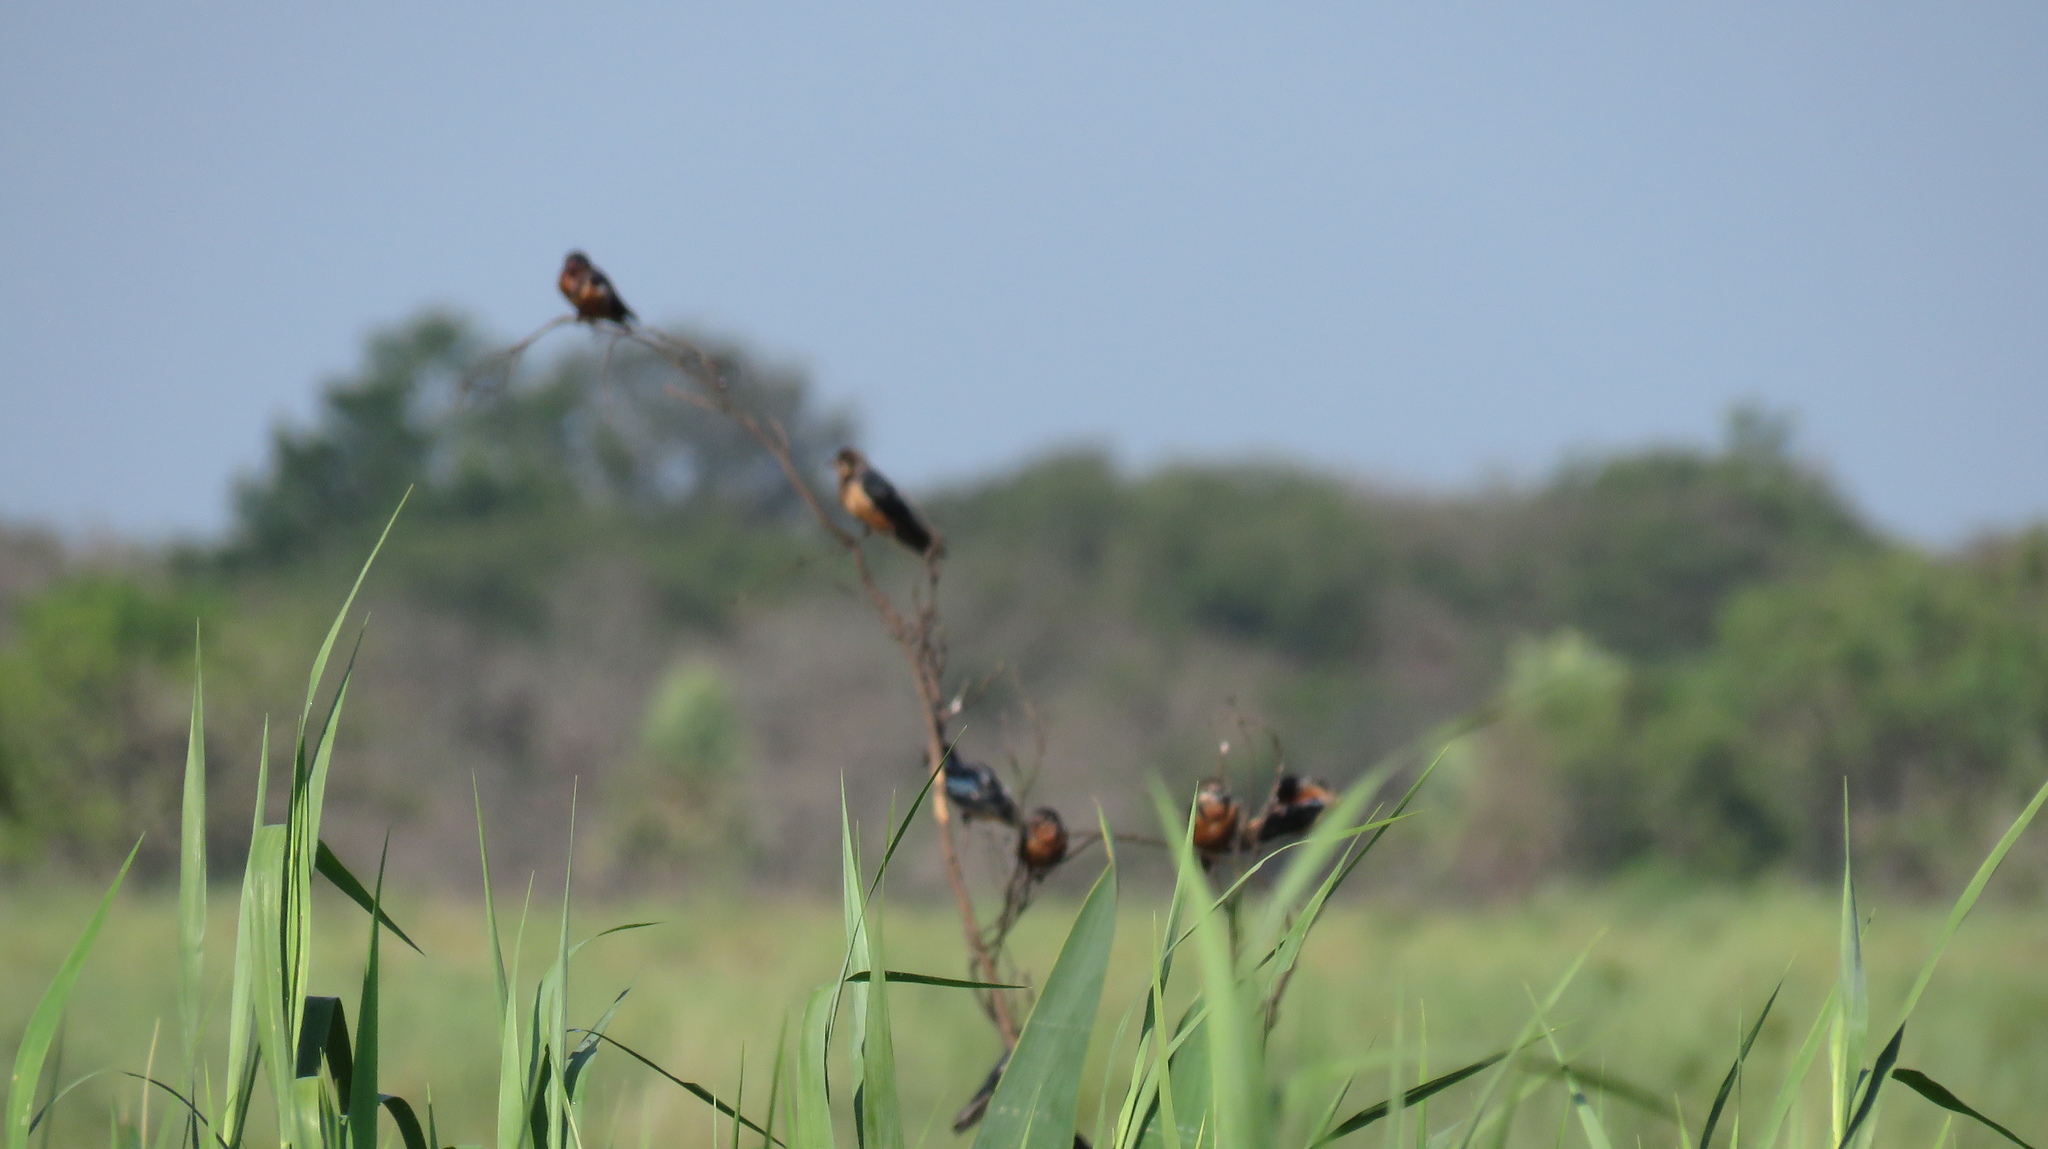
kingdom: Animalia
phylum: Chordata
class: Aves
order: Passeriformes
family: Hirundinidae
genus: Hirundo
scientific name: Hirundo rustica
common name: Barn swallow
